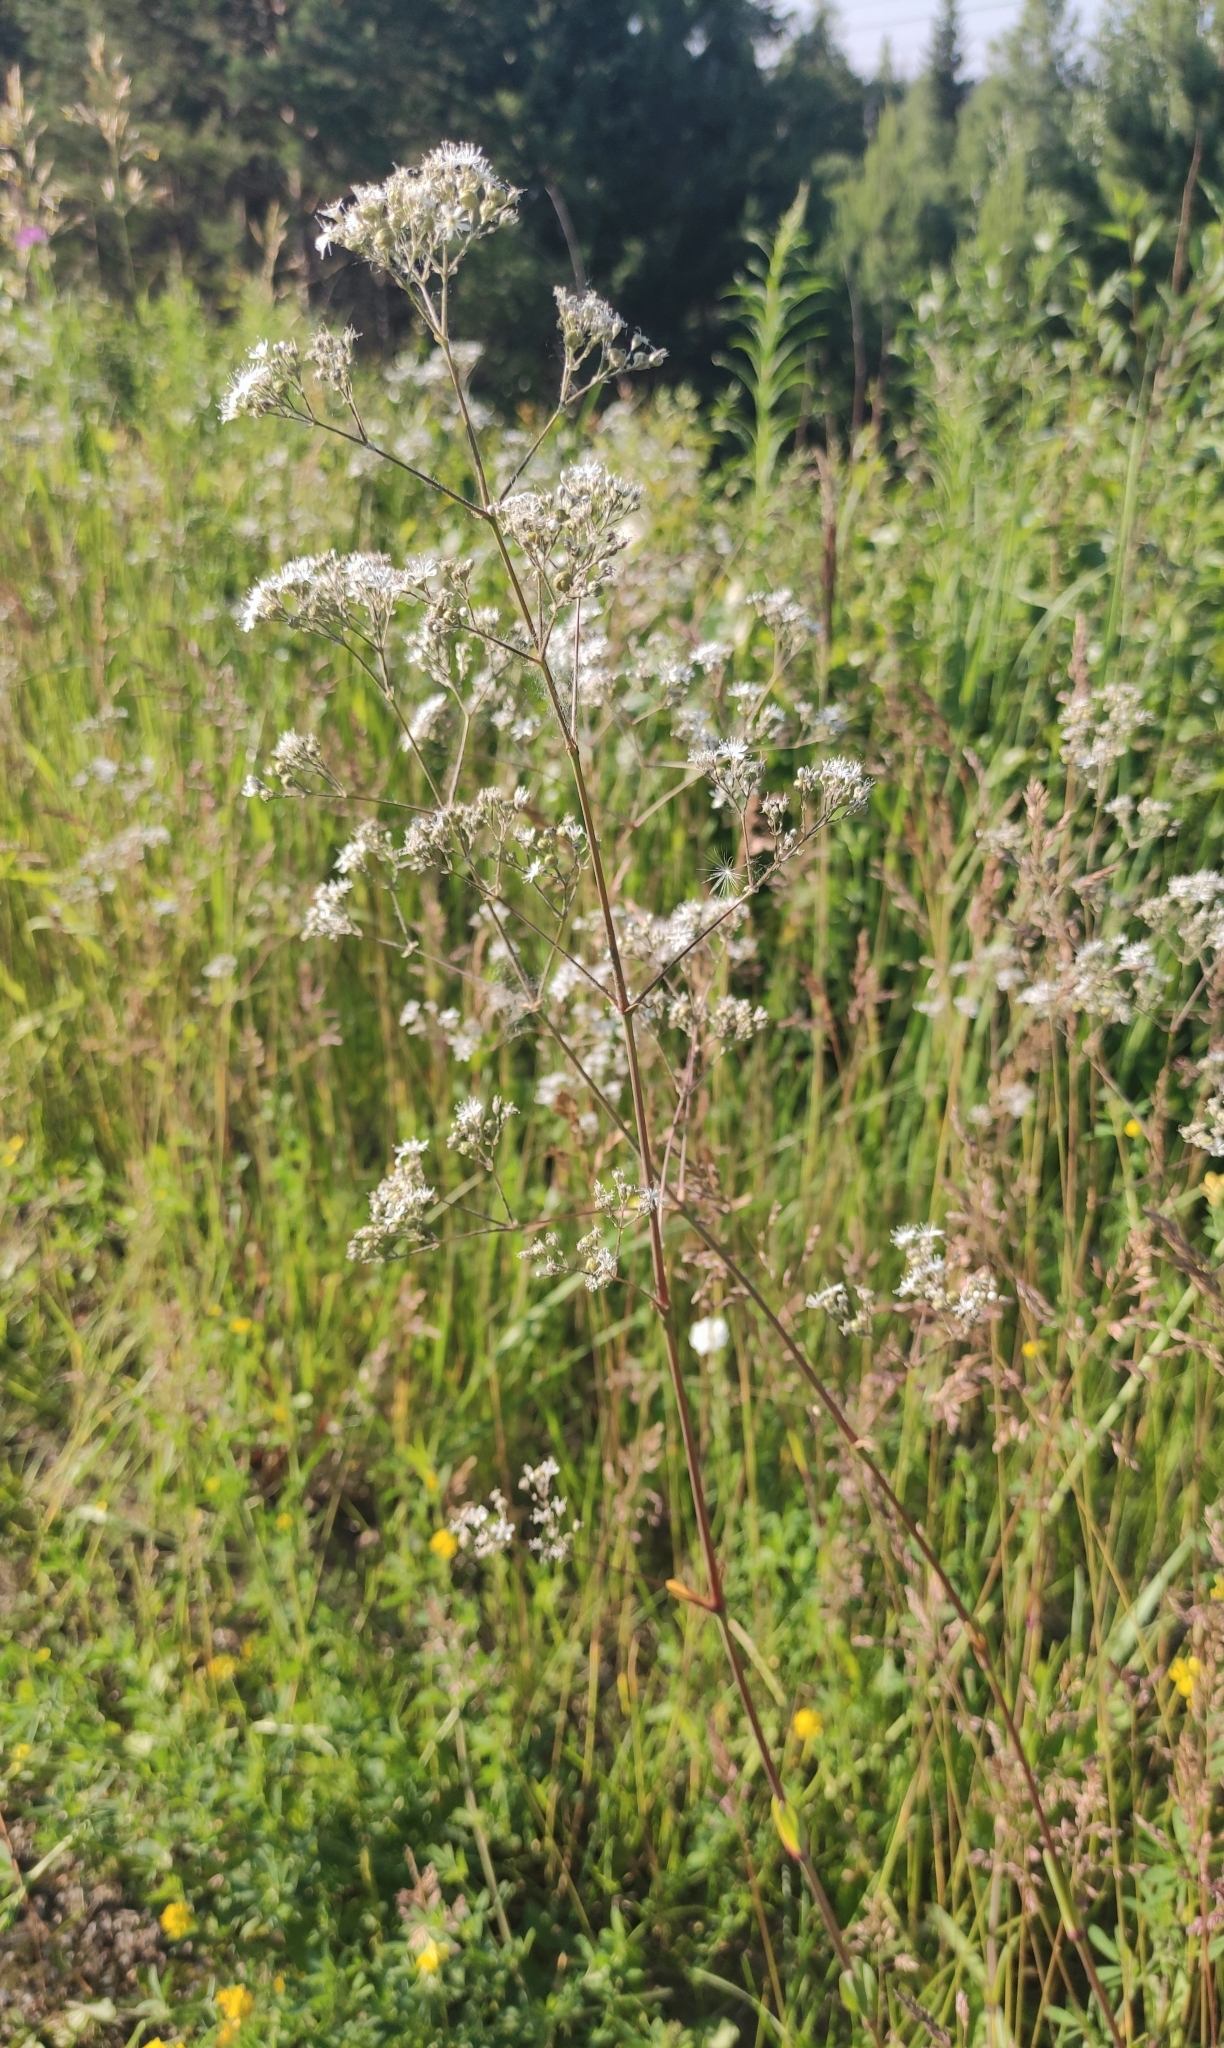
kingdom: Plantae
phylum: Tracheophyta
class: Magnoliopsida
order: Caryophyllales
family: Caryophyllaceae
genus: Gypsophila
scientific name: Gypsophila altissima
